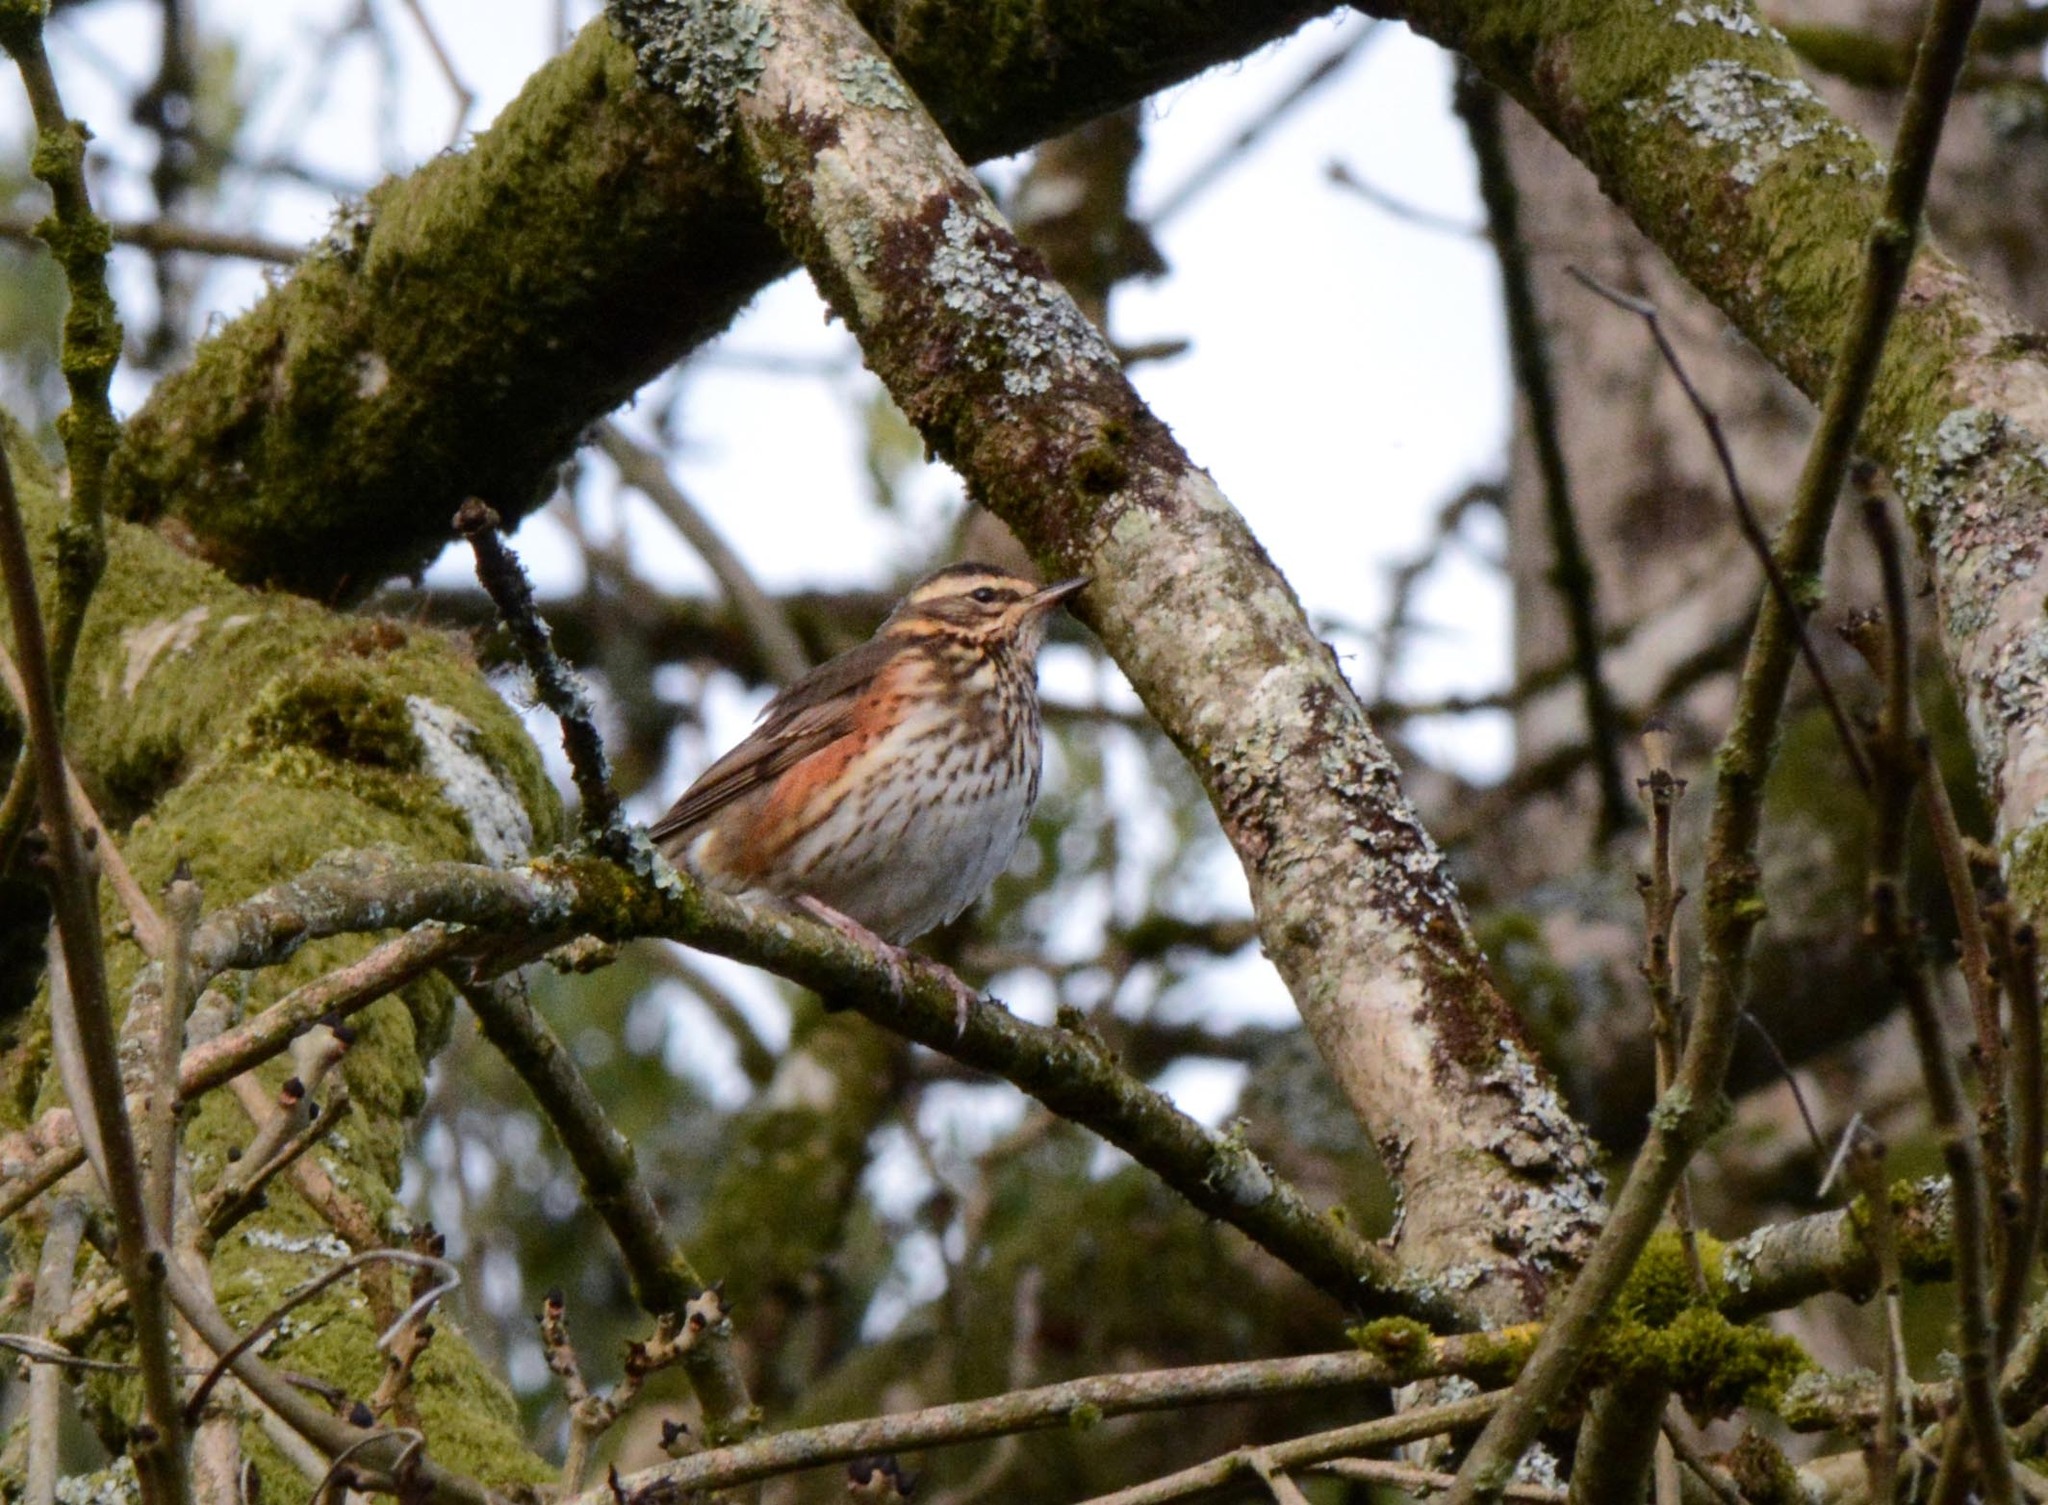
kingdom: Animalia
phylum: Chordata
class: Aves
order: Passeriformes
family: Turdidae
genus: Turdus
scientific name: Turdus iliacus
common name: Redwing
